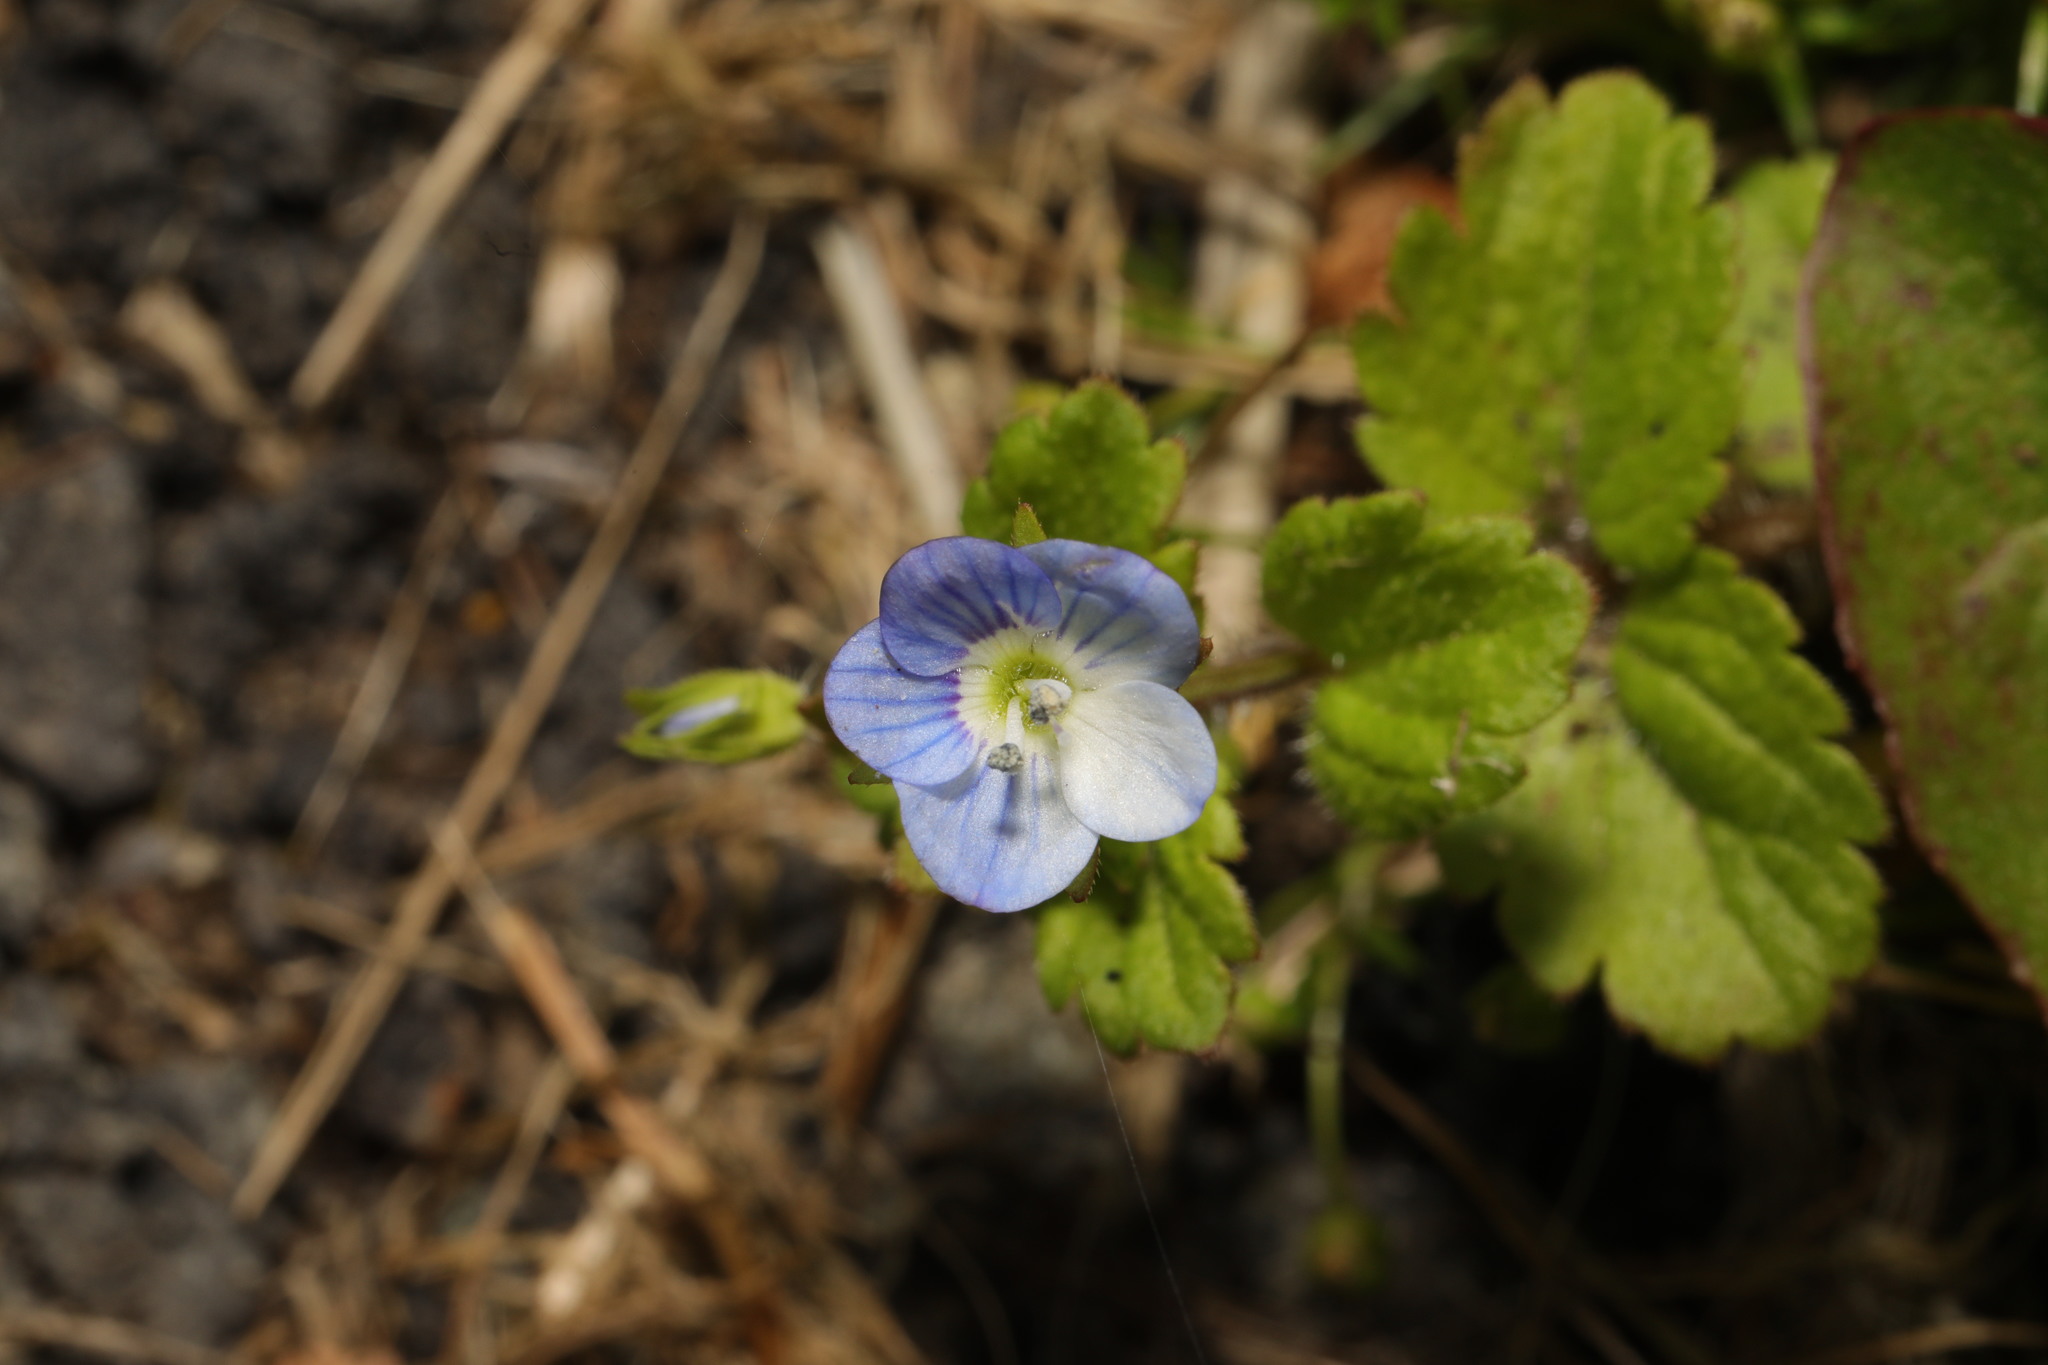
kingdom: Plantae
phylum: Tracheophyta
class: Magnoliopsida
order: Lamiales
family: Plantaginaceae
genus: Veronica
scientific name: Veronica persica
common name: Common field-speedwell
